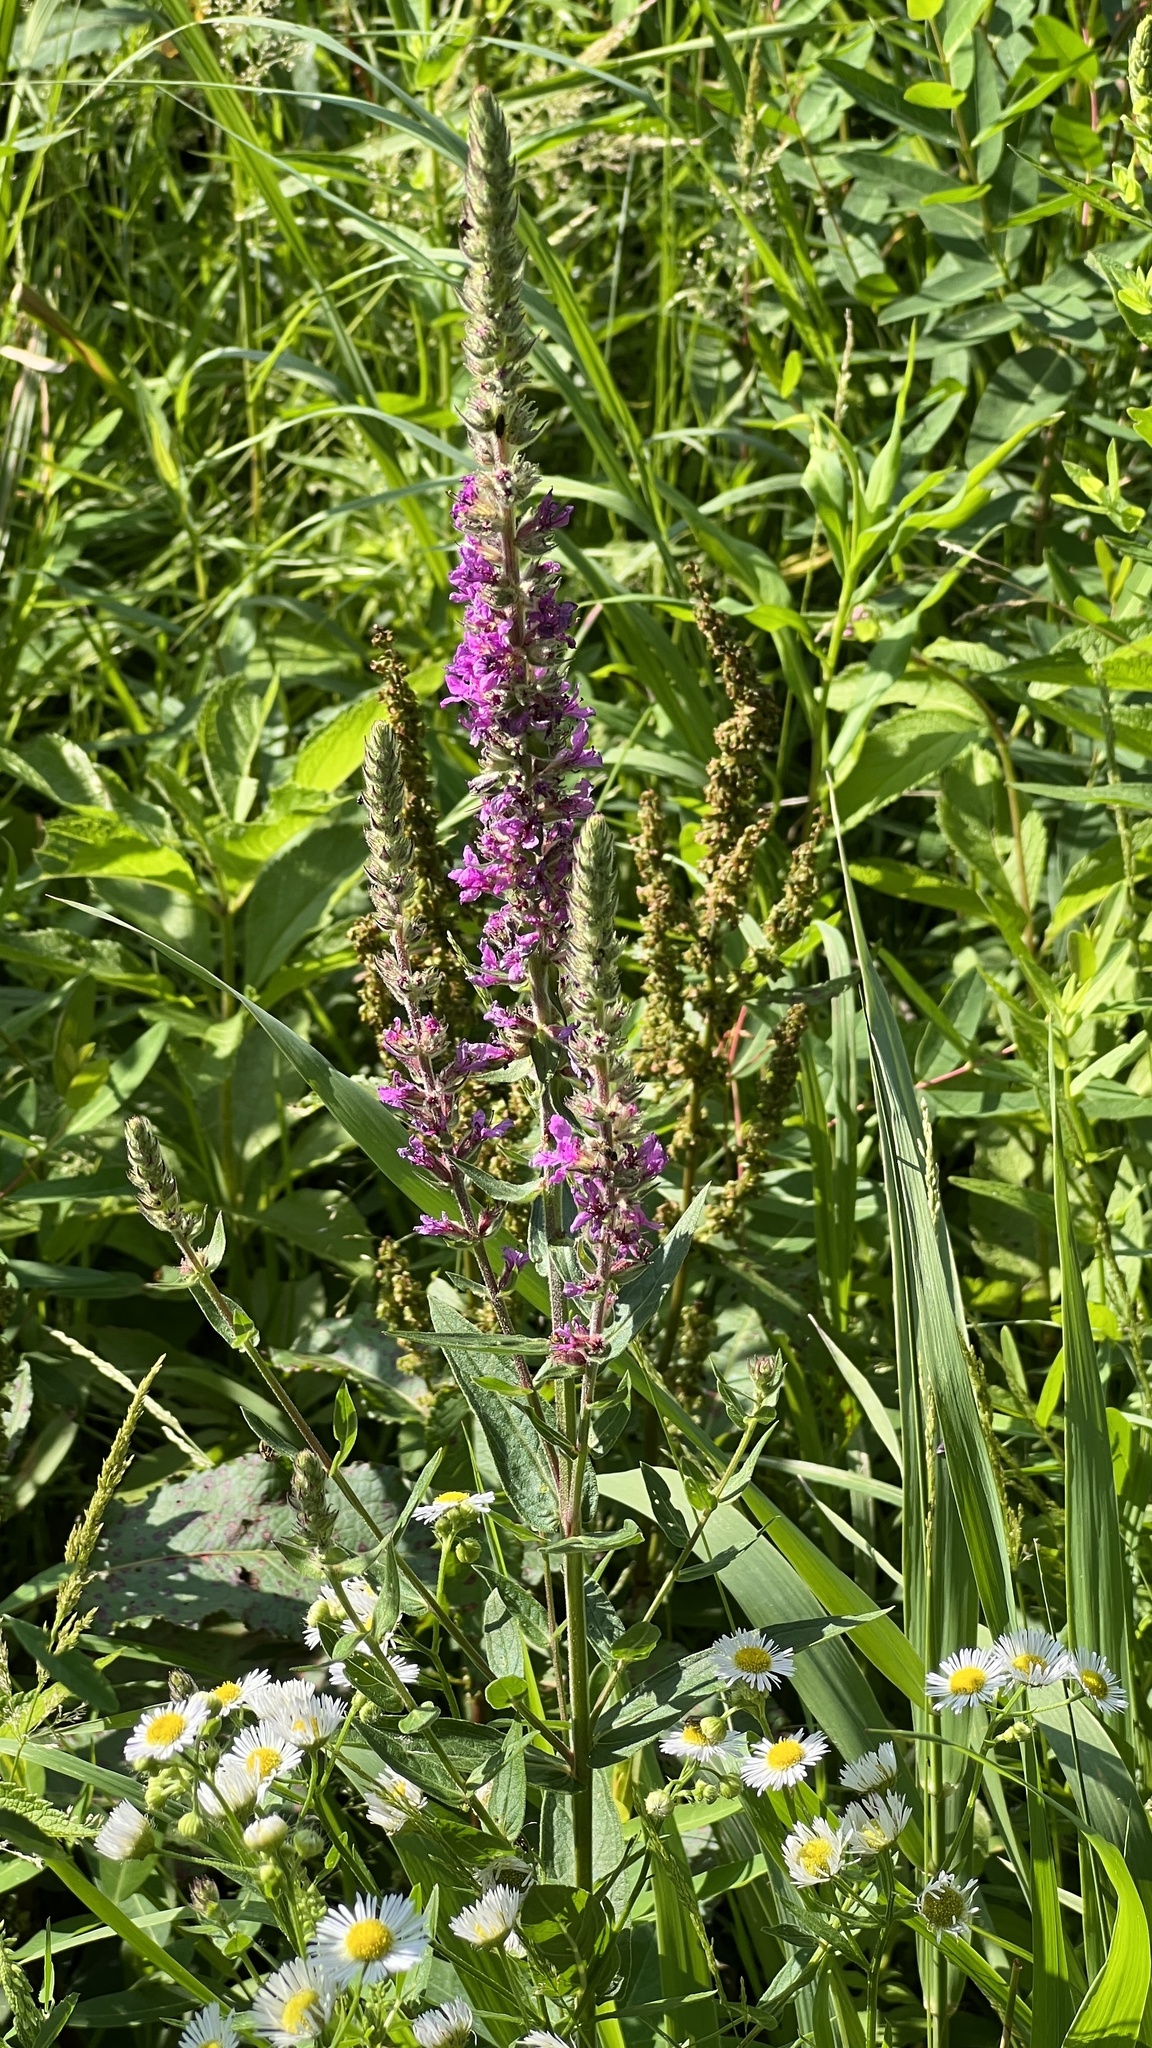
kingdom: Plantae
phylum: Tracheophyta
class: Magnoliopsida
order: Myrtales
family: Lythraceae
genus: Lythrum
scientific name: Lythrum salicaria
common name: Purple loosestrife
